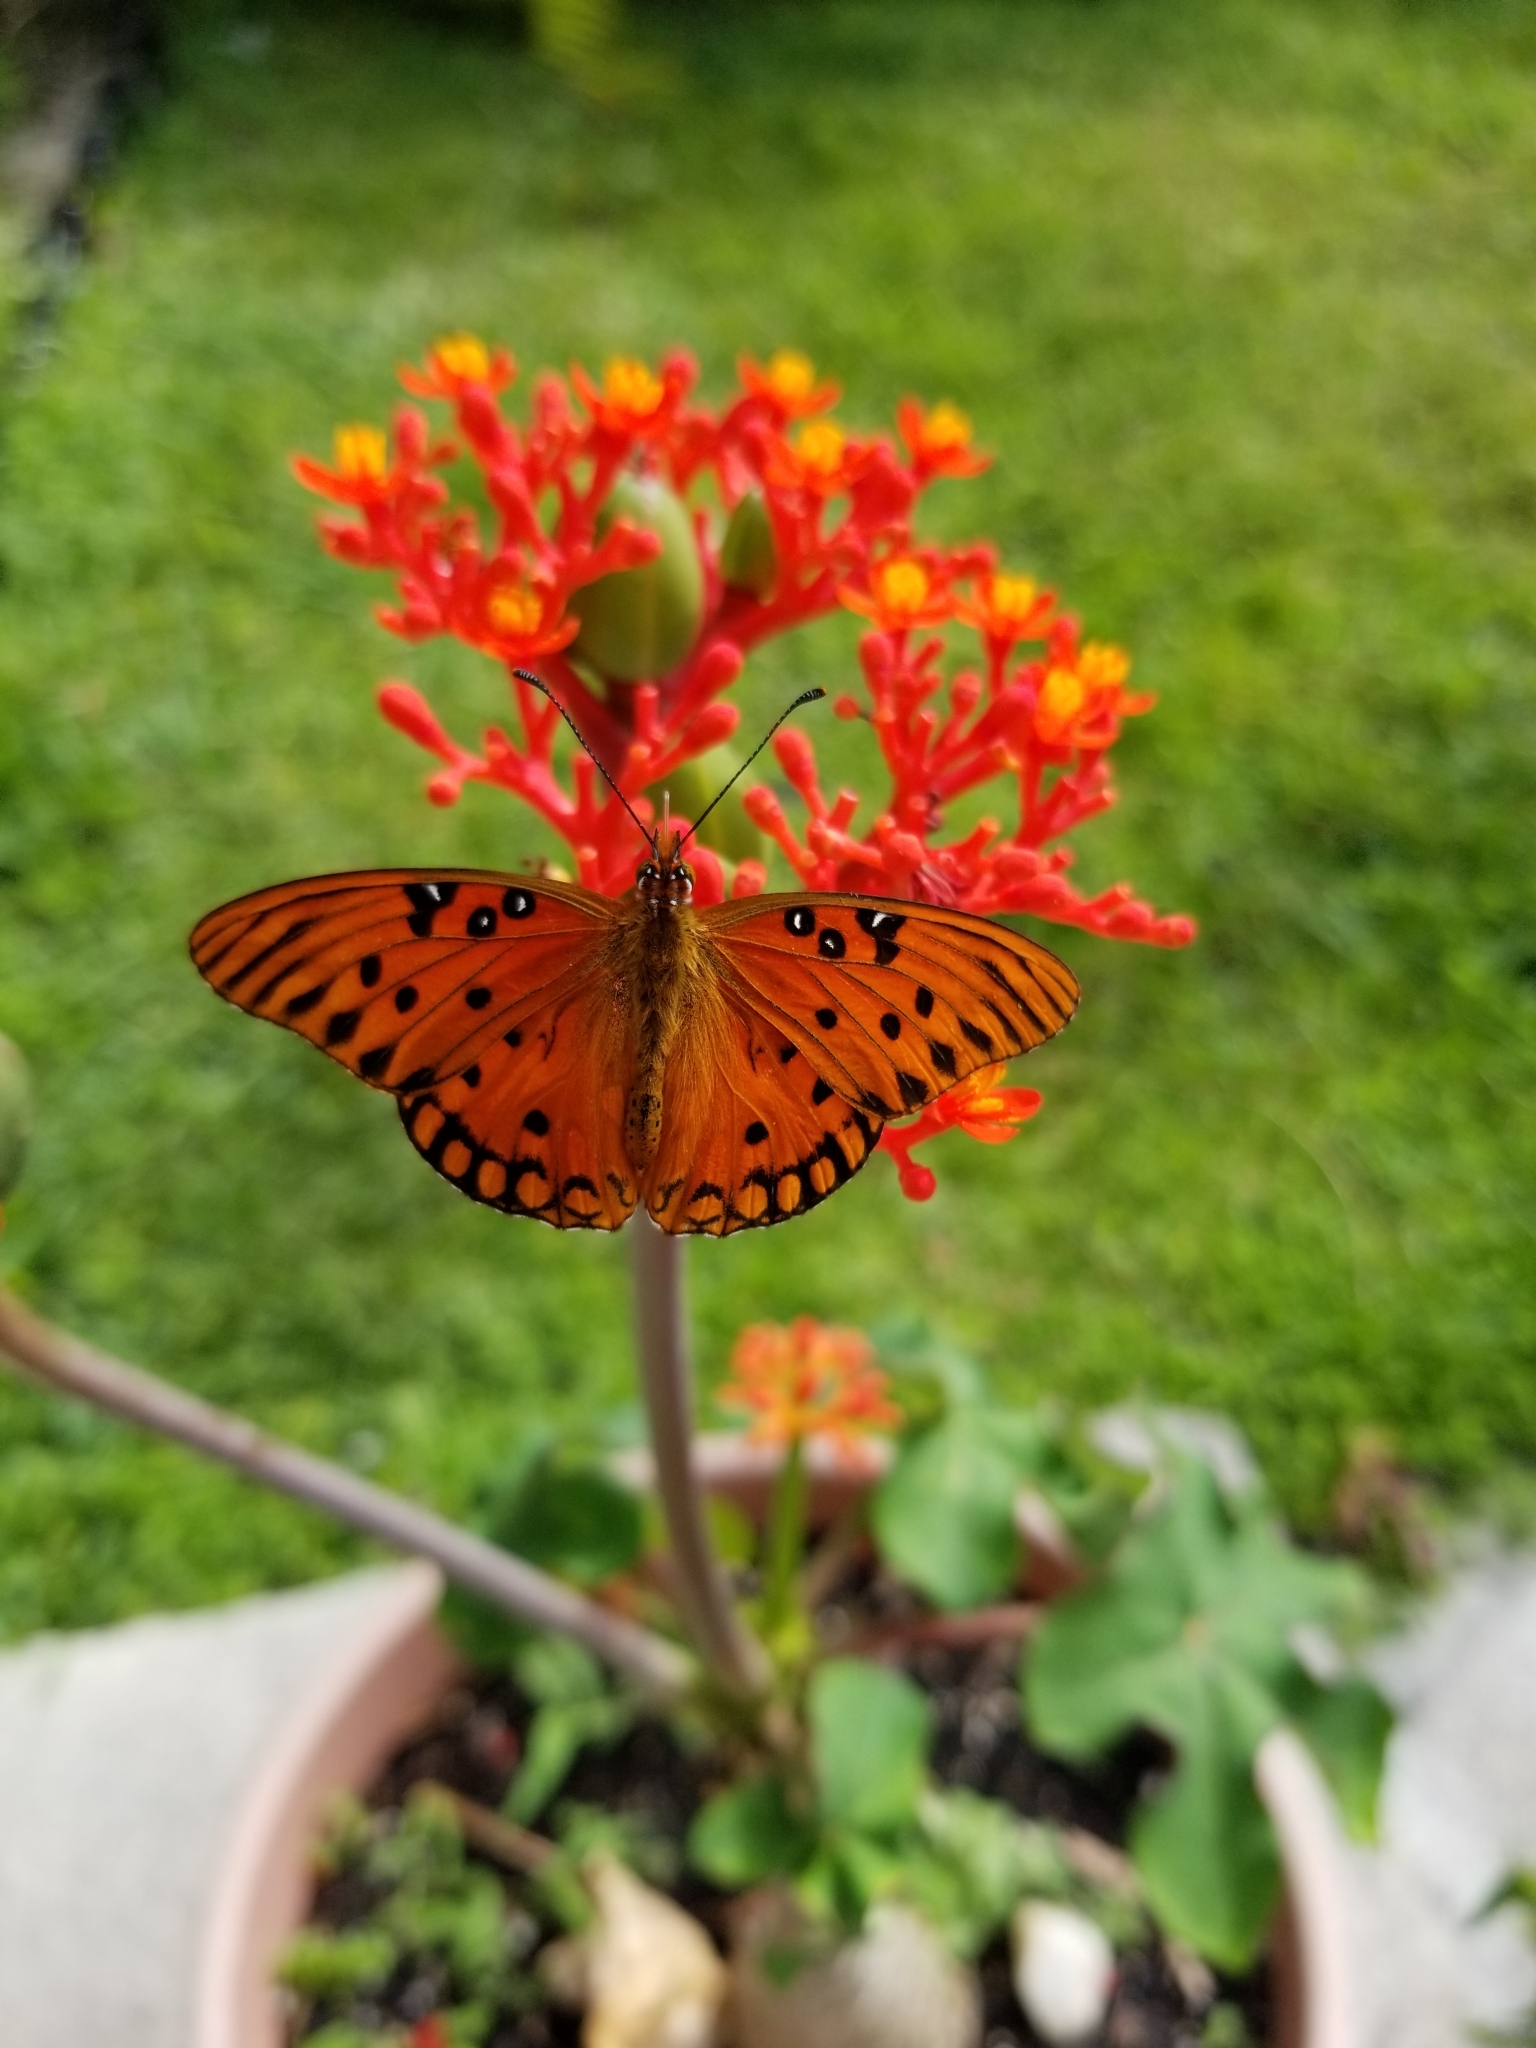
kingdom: Animalia
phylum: Arthropoda
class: Insecta
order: Lepidoptera
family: Nymphalidae
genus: Dione
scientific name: Dione vanillae
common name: Gulf fritillary
